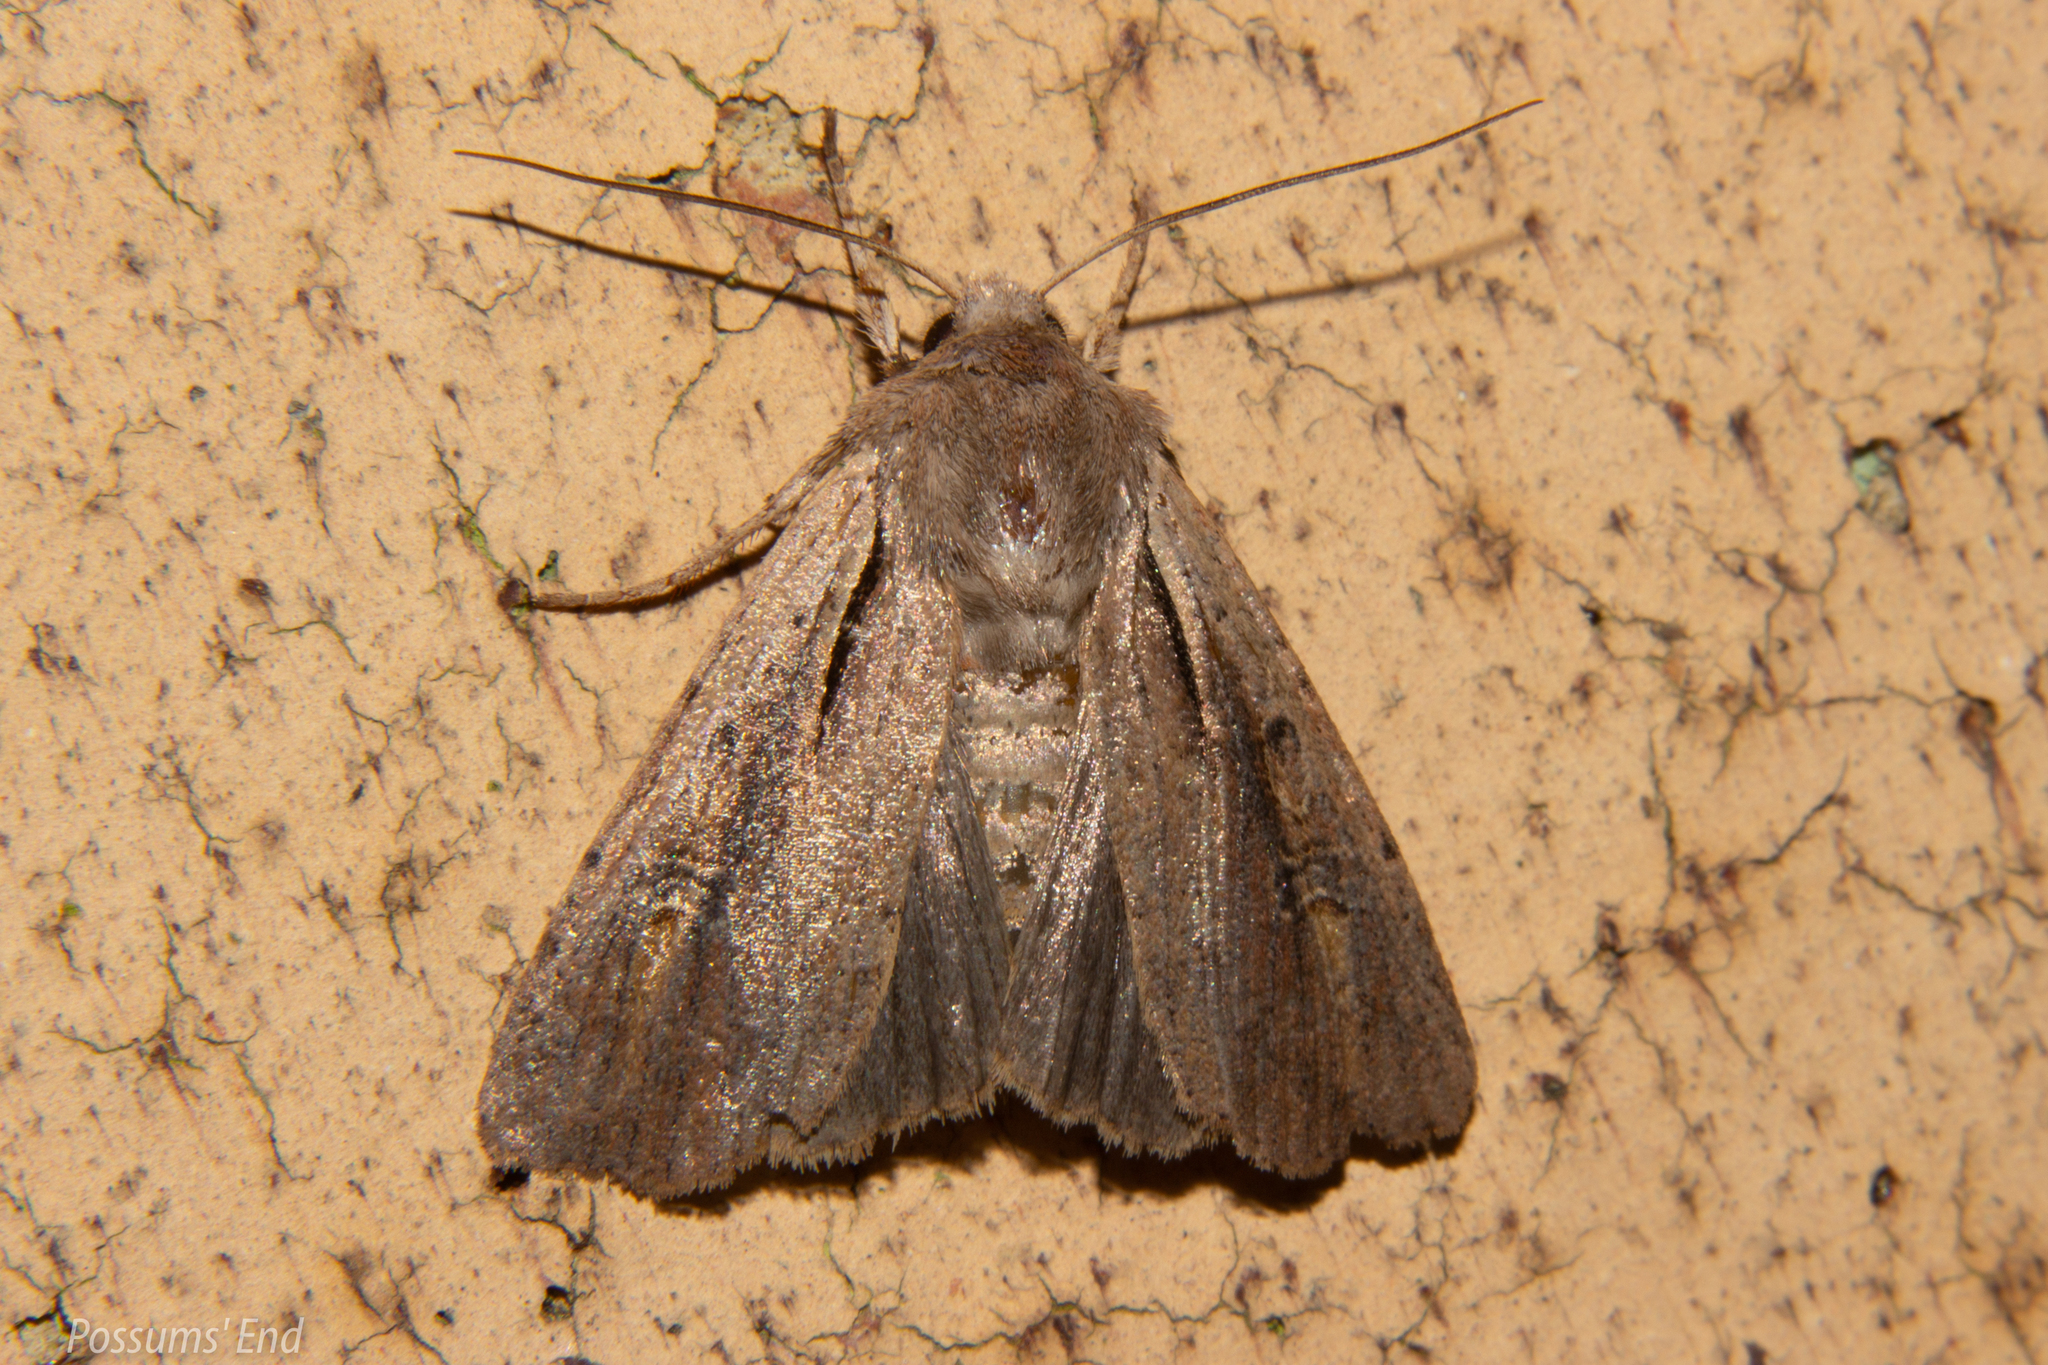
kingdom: Animalia
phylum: Arthropoda
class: Insecta
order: Lepidoptera
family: Noctuidae
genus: Ichneutica
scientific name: Ichneutica atristriga
